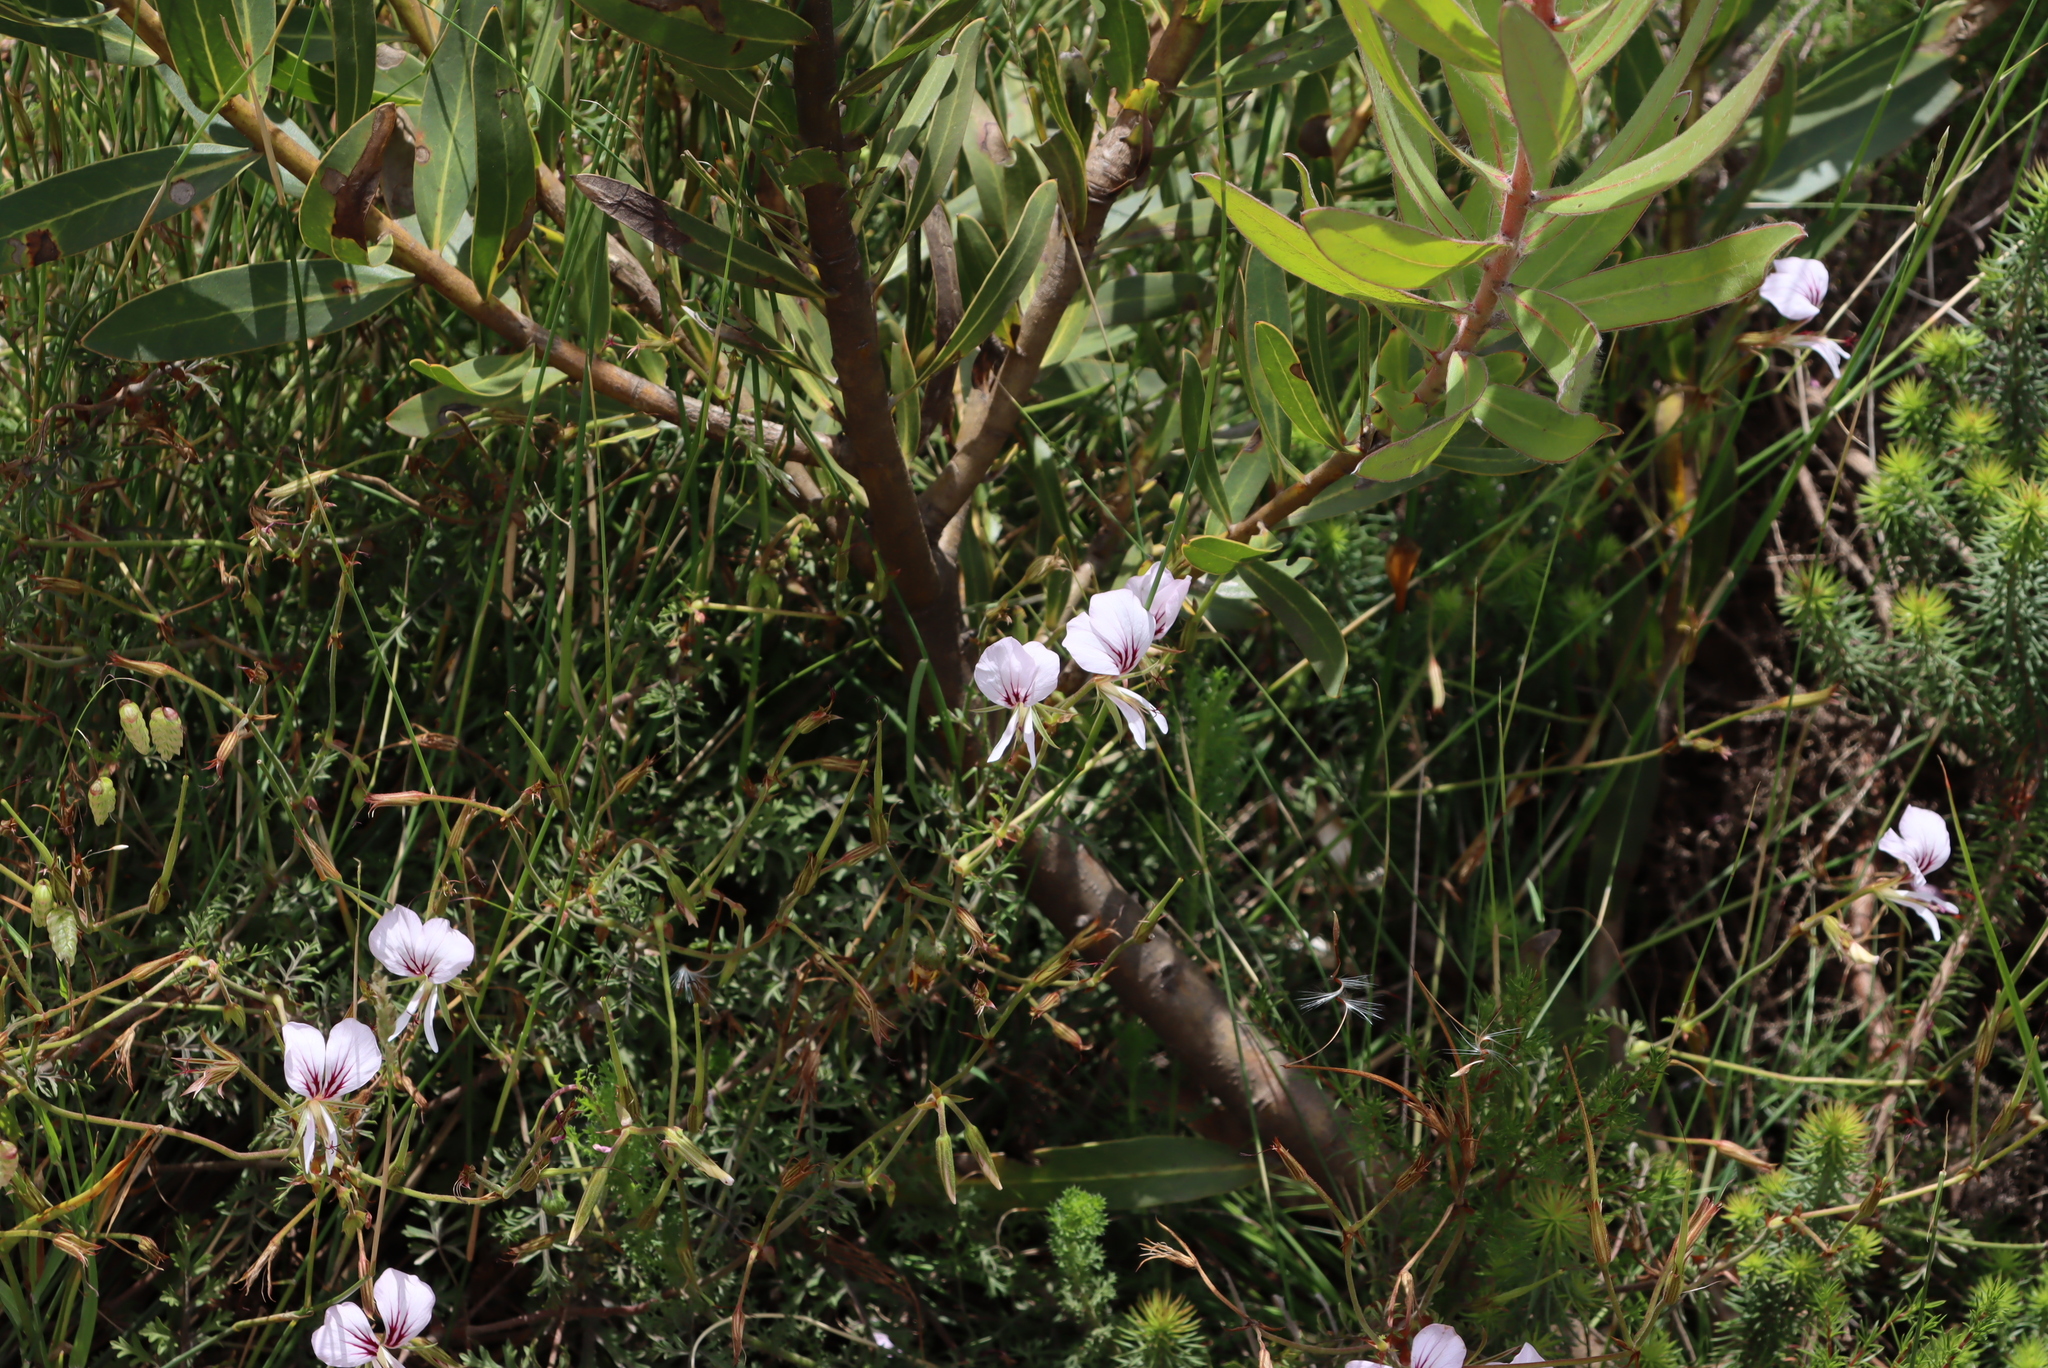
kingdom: Plantae
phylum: Tracheophyta
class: Magnoliopsida
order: Geraniales
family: Geraniaceae
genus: Pelargonium
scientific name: Pelargonium longicaule
